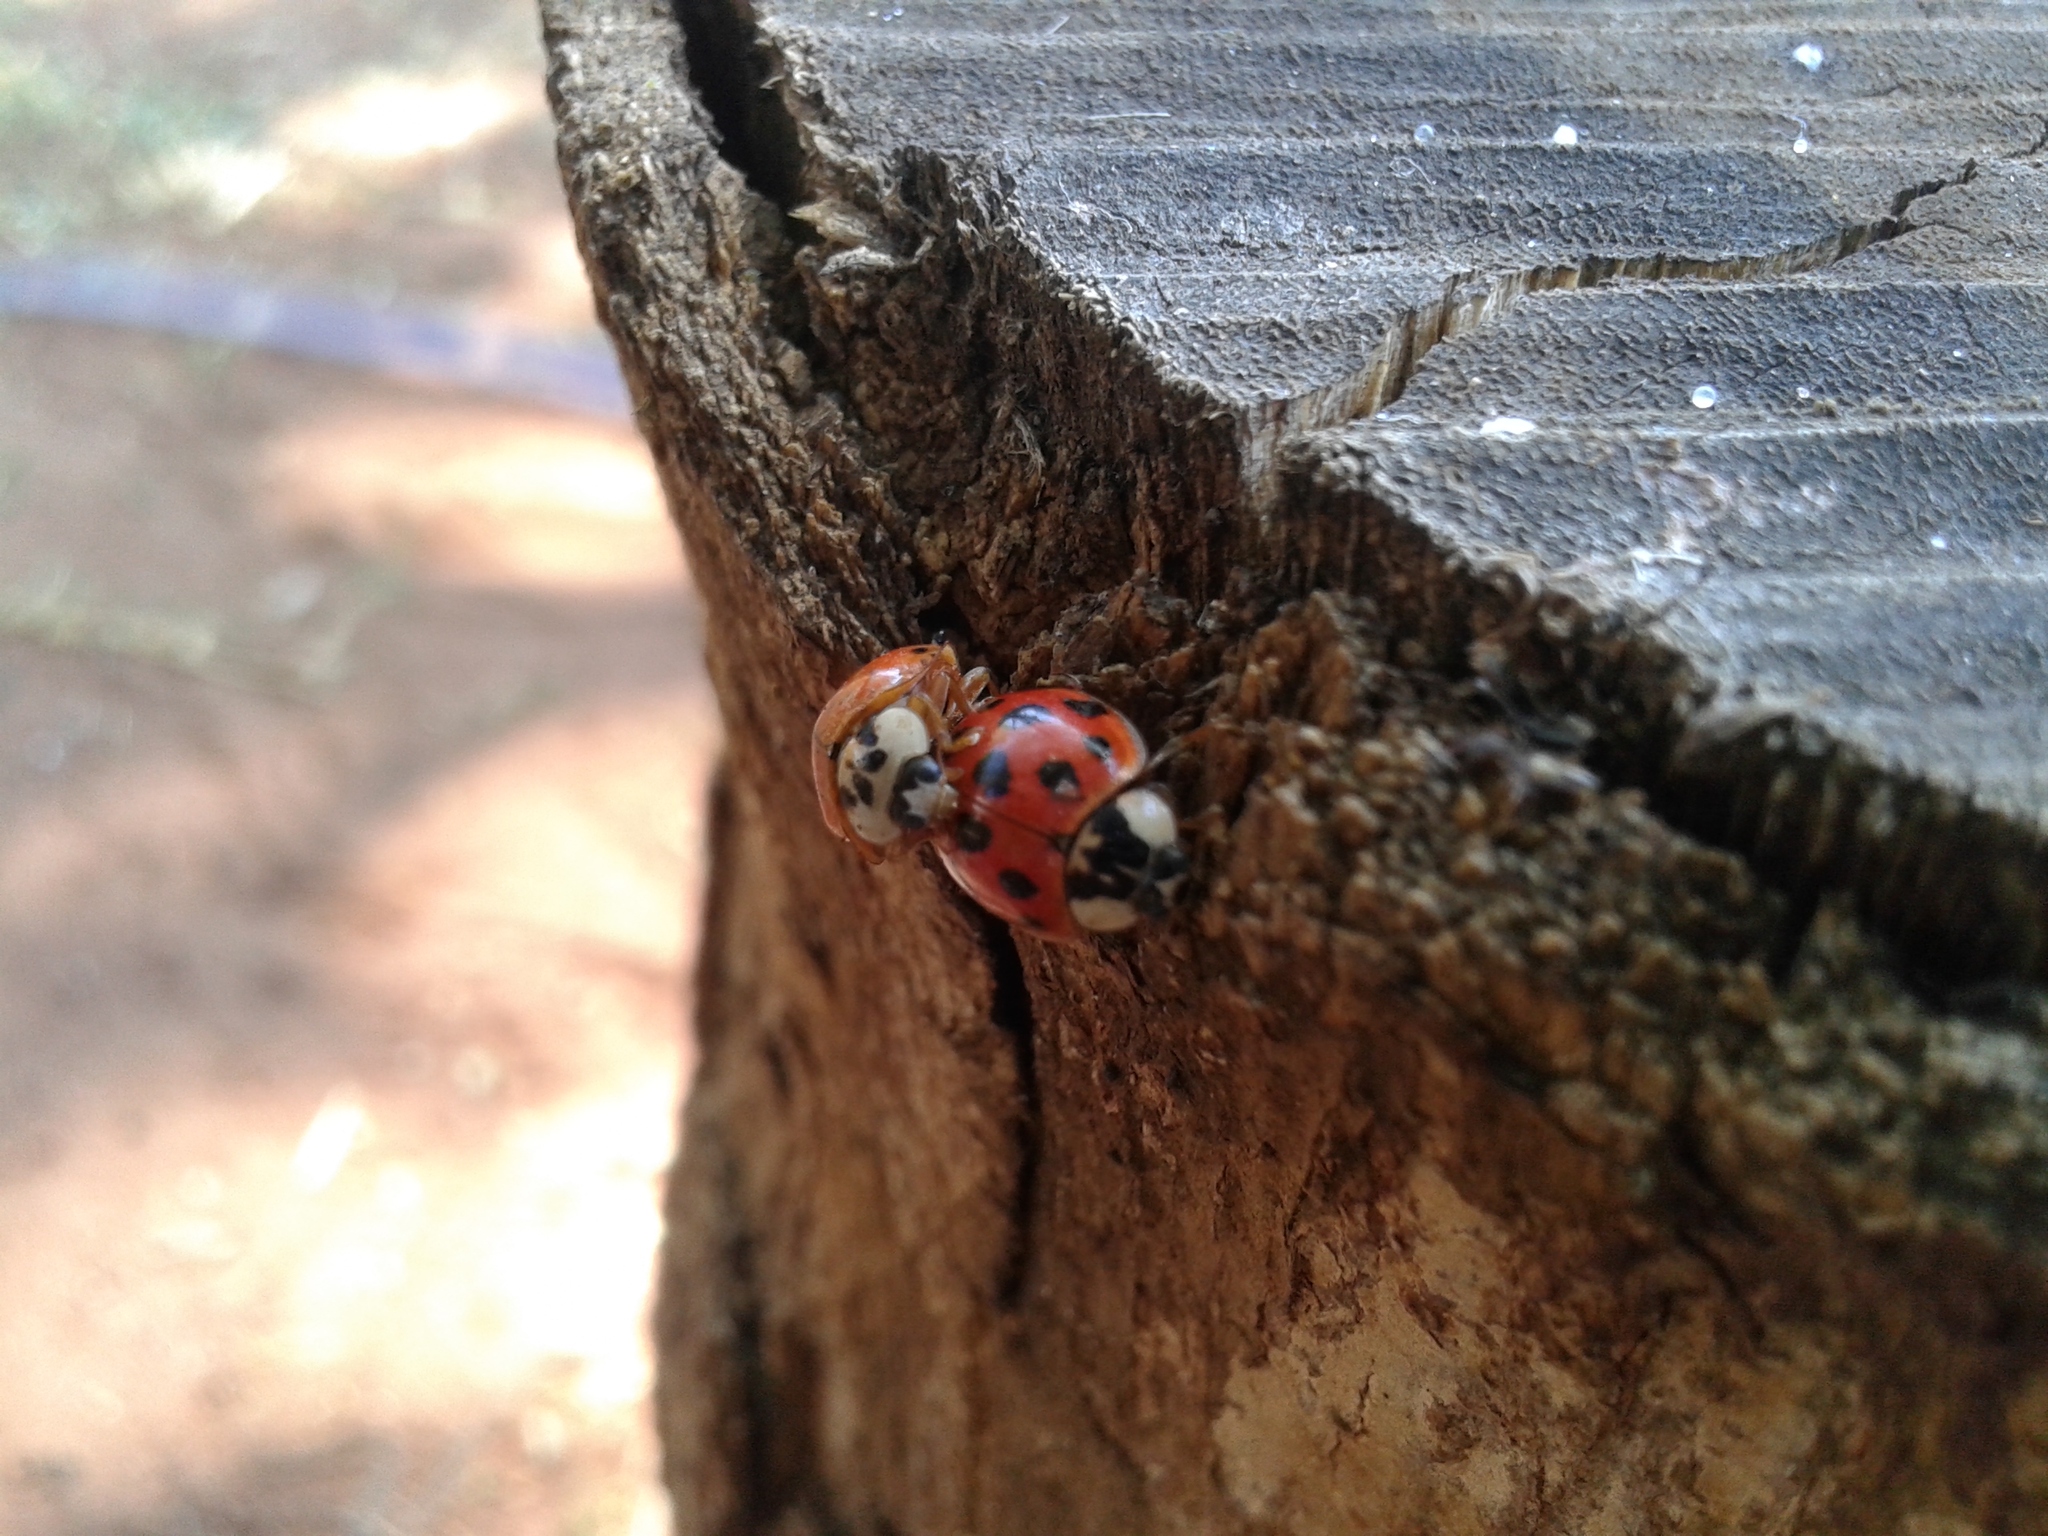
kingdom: Animalia
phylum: Arthropoda
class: Insecta
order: Coleoptera
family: Coccinellidae
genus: Harmonia
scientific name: Harmonia axyridis
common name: Harlequin ladybird
